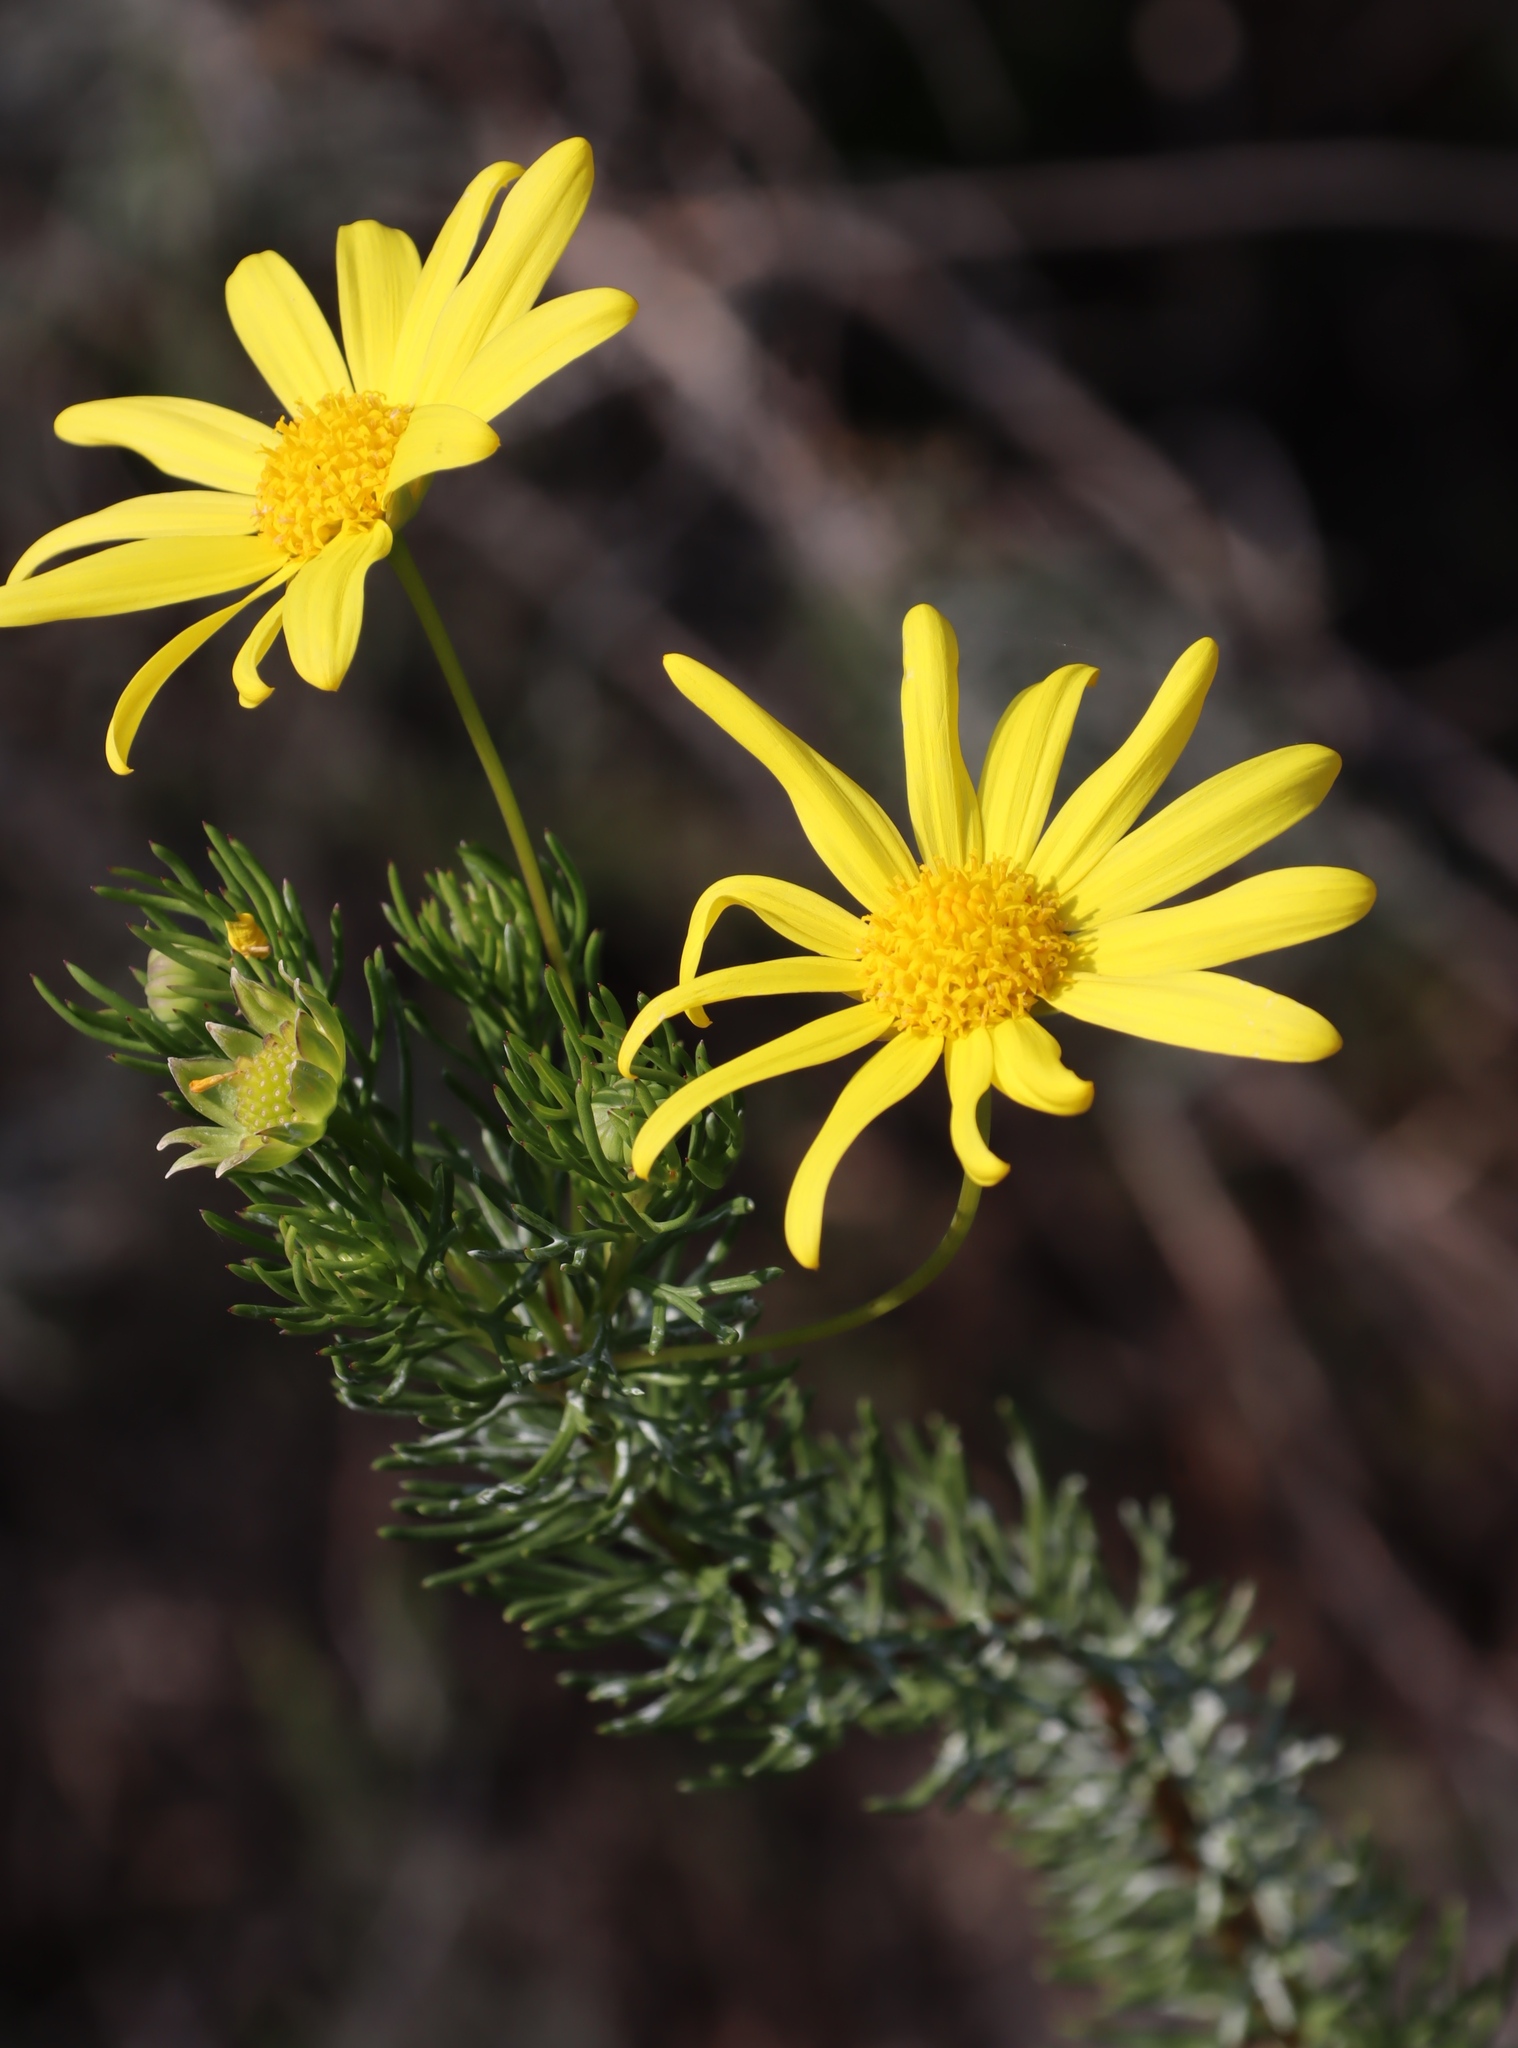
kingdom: Plantae
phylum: Tracheophyta
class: Magnoliopsida
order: Asterales
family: Asteraceae
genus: Euryops
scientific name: Euryops pinnatipartitus
